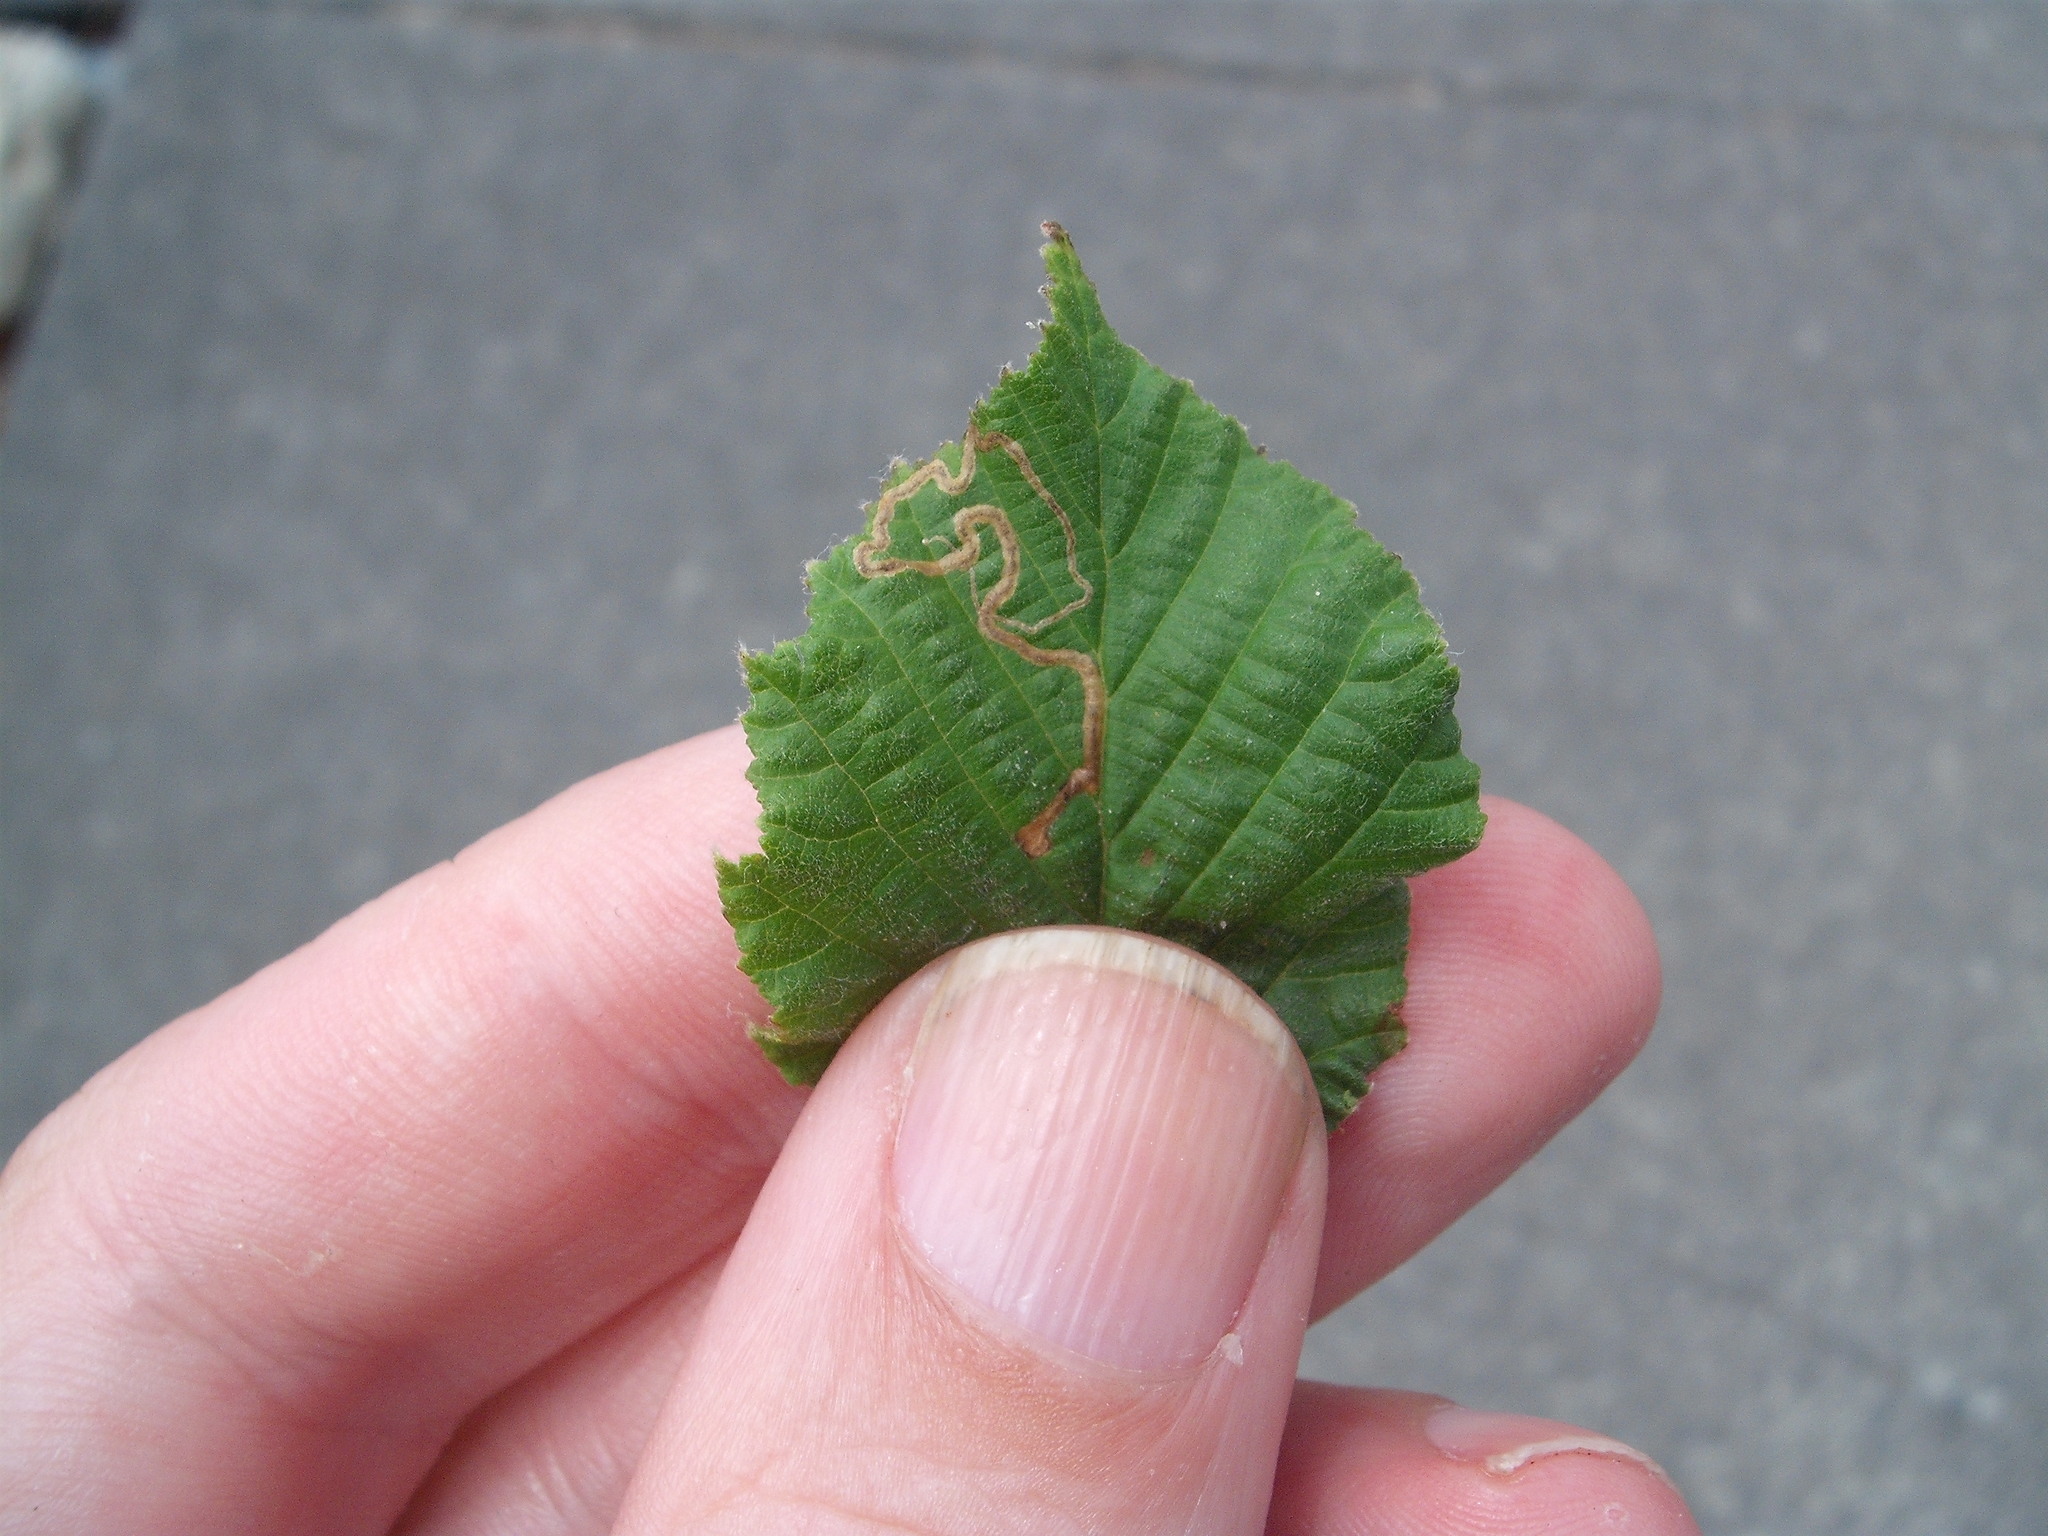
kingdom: Animalia
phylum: Arthropoda
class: Insecta
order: Lepidoptera
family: Nepticulidae
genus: Stigmella
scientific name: Stigmella microtheriella
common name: Nut-tree pigmy
